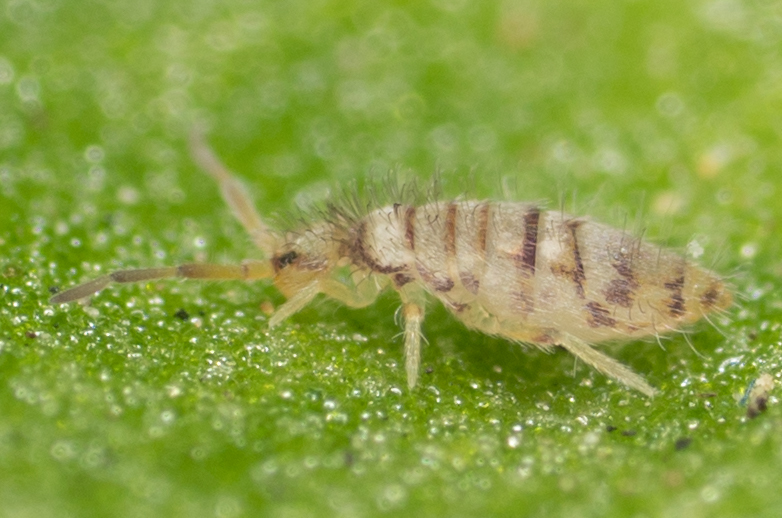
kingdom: Animalia
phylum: Arthropoda
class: Collembola
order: Entomobryomorpha
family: Entomobryidae
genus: Entomobrya
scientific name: Entomobrya atrocincta
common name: Springtail
